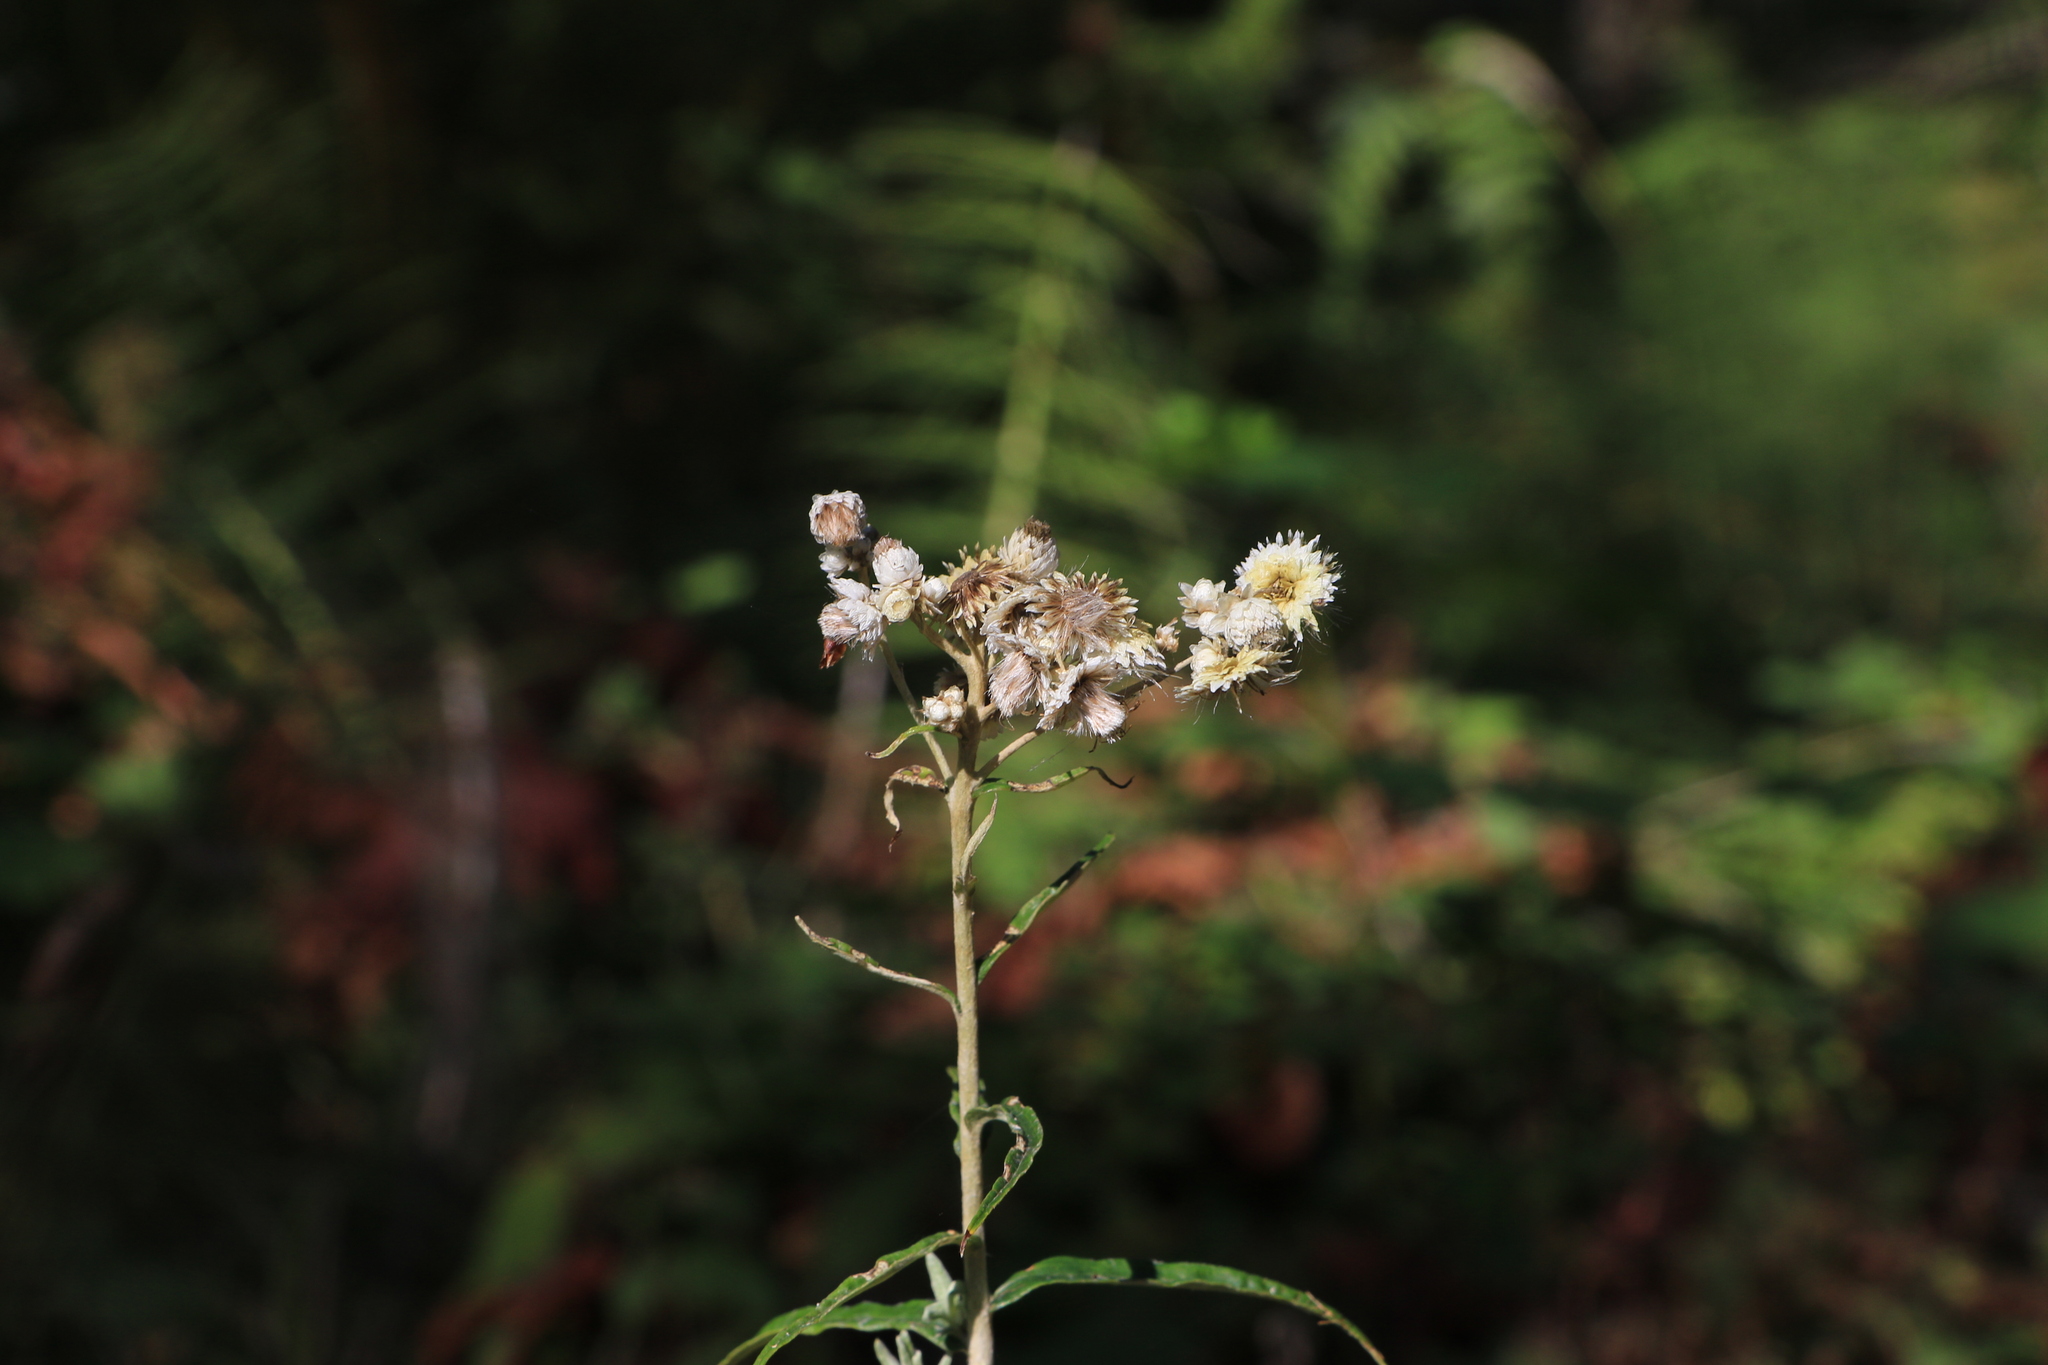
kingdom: Plantae
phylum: Tracheophyta
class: Magnoliopsida
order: Asterales
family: Asteraceae
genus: Anaphalis
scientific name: Anaphalis margaritacea
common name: Pearly everlasting
